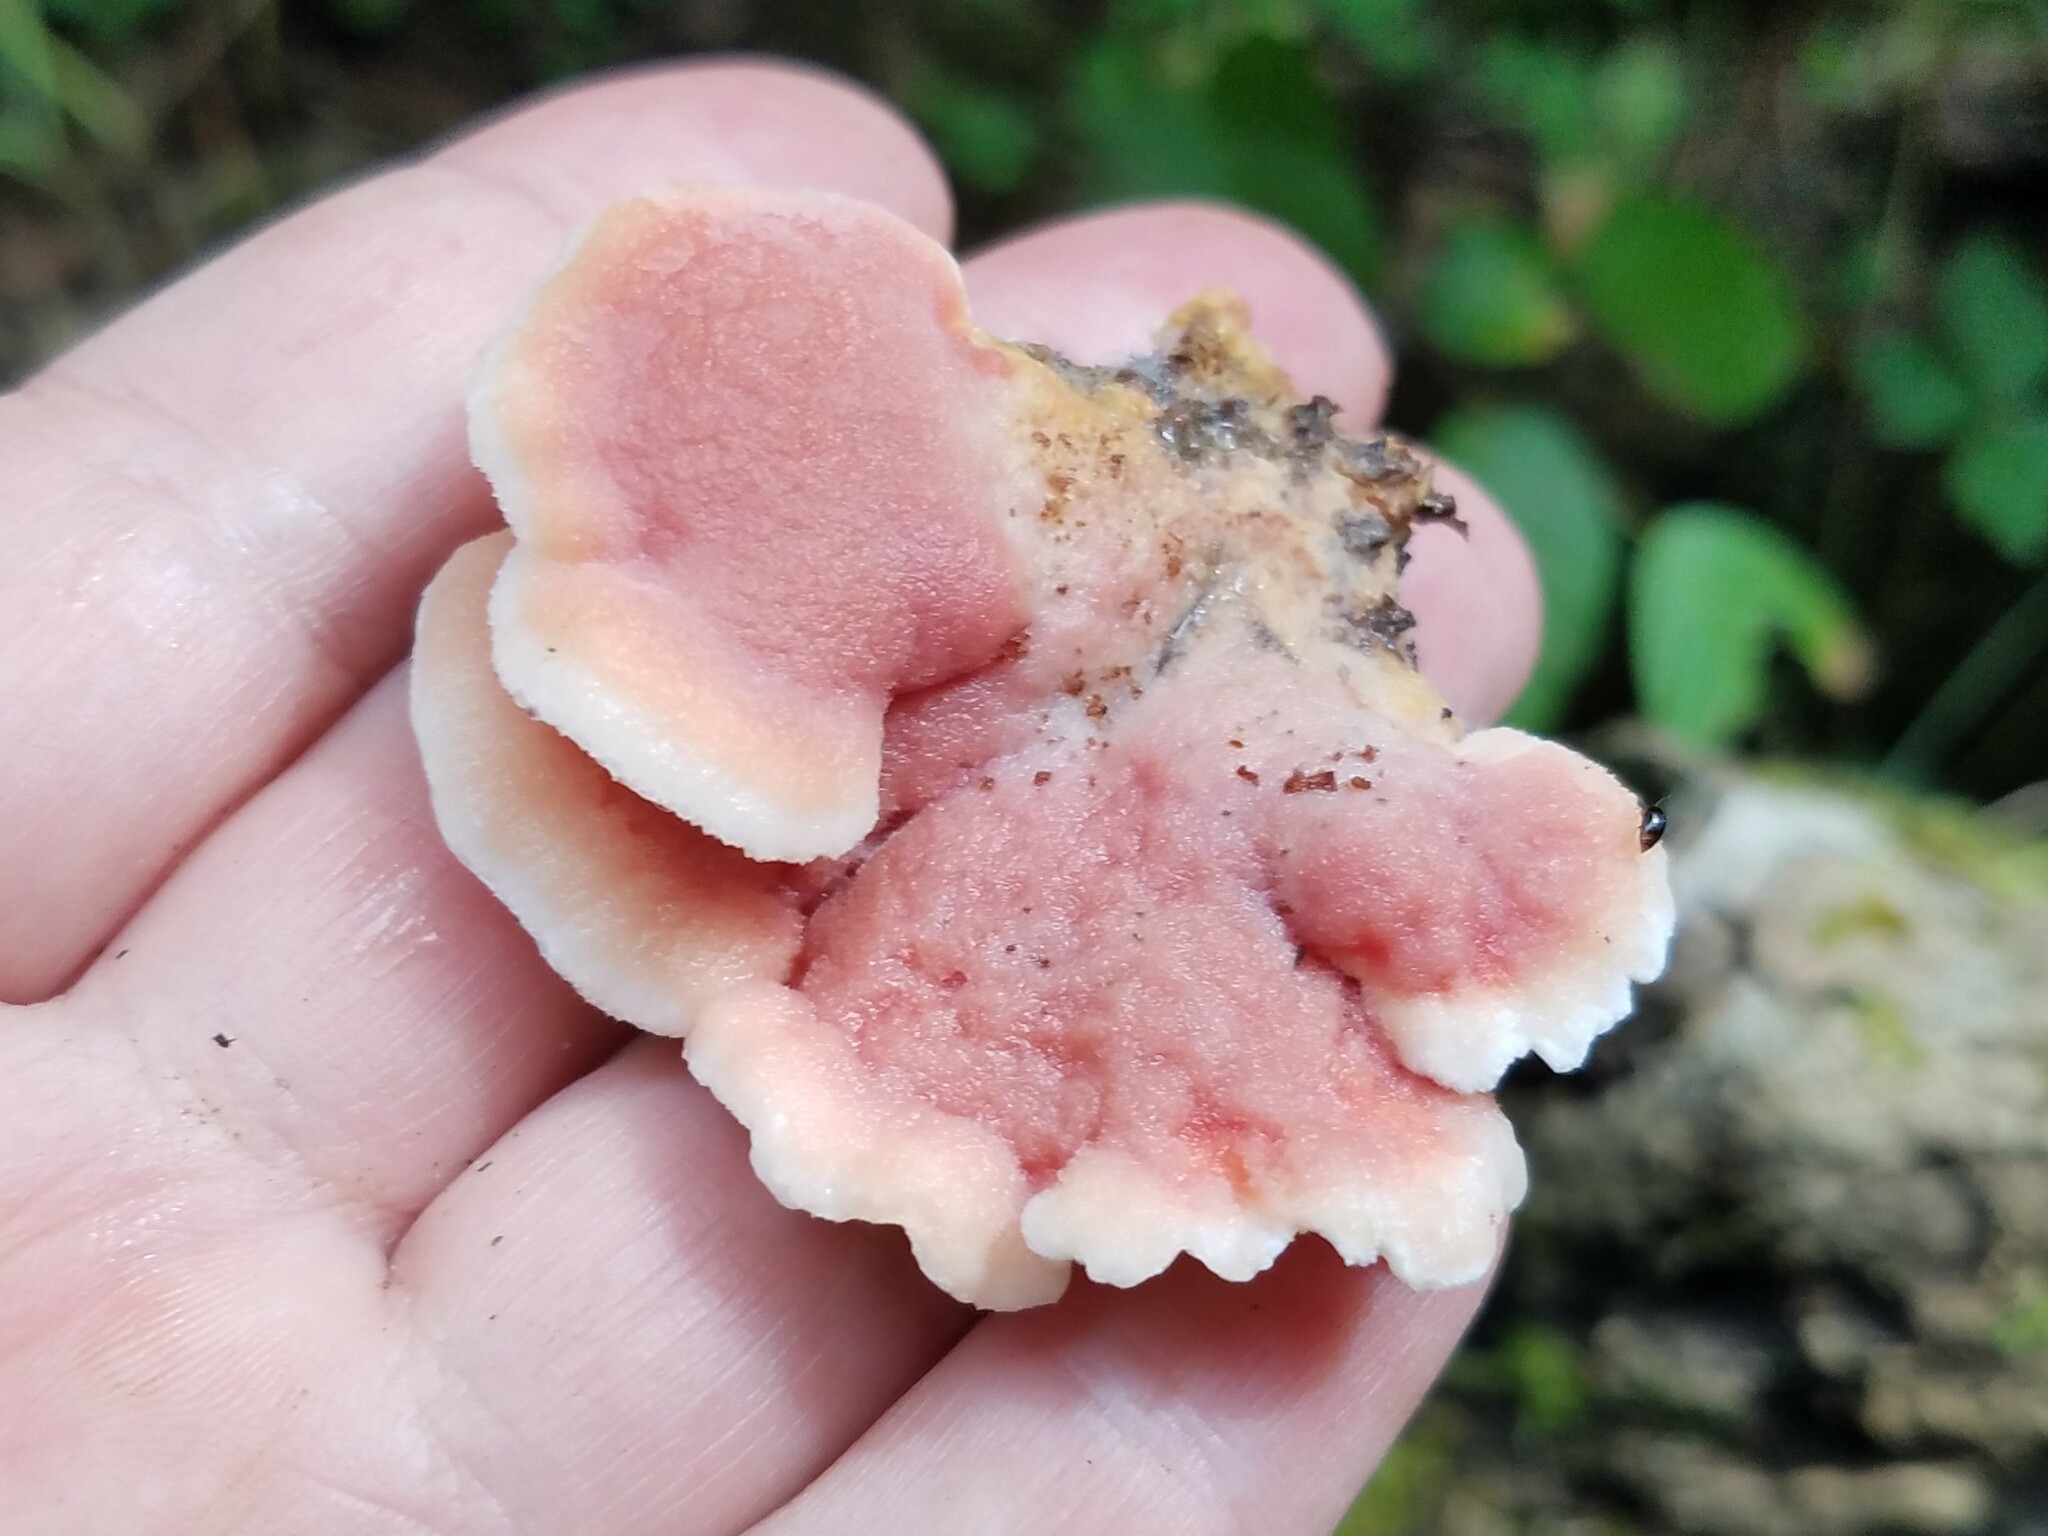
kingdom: Fungi
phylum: Basidiomycota
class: Agaricomycetes
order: Polyporales
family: Irpicaceae
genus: Byssomerulius
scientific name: Byssomerulius incarnatus
